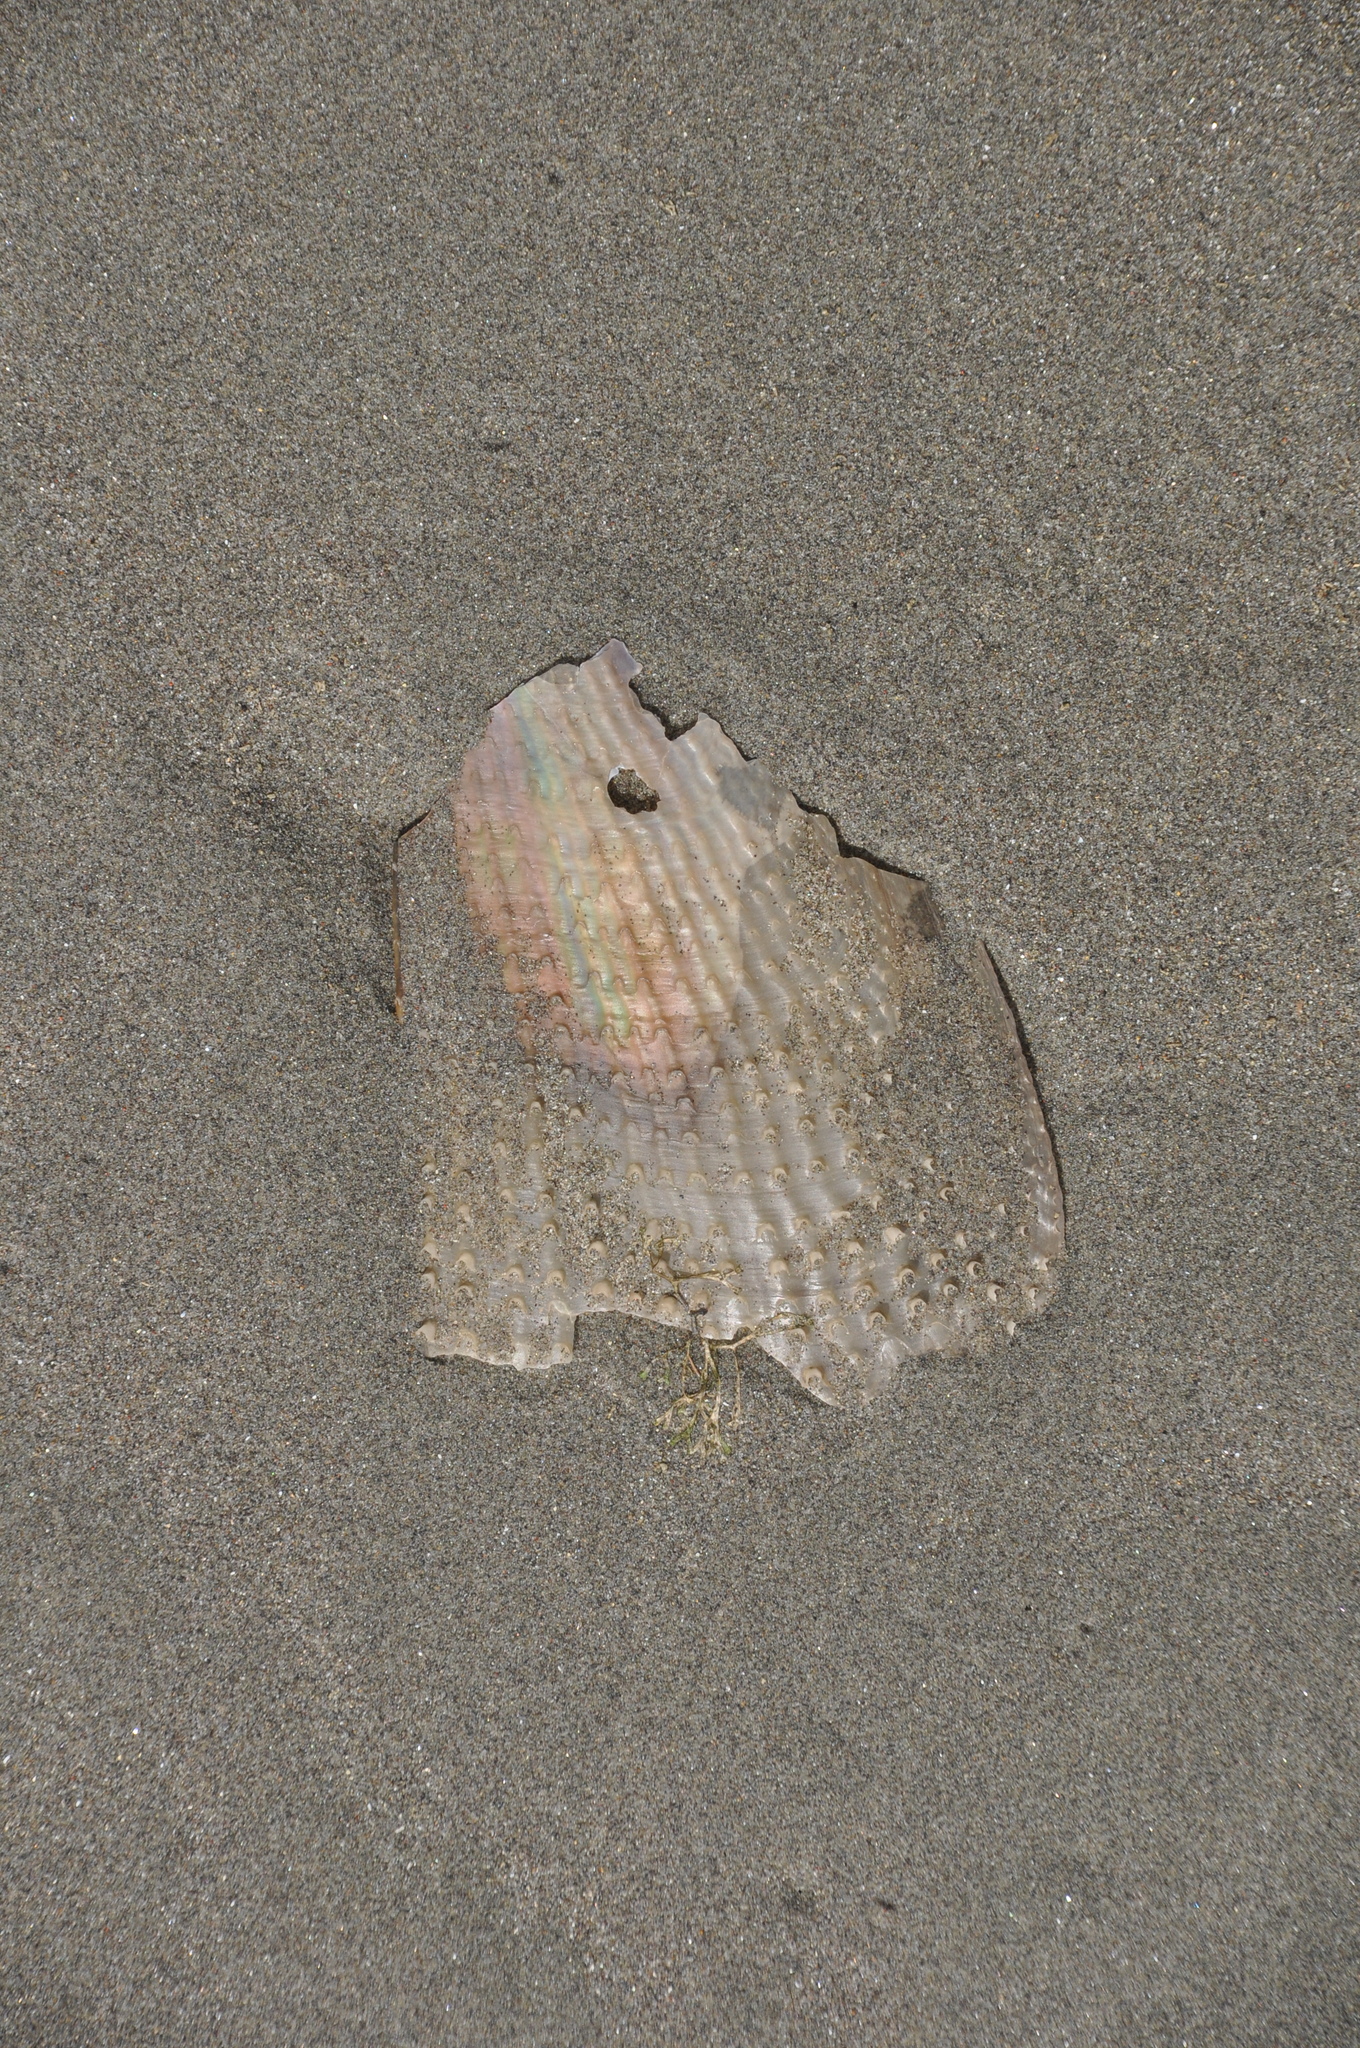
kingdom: Animalia
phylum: Mollusca
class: Bivalvia
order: Ostreida
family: Pinnidae
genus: Atrina
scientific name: Atrina zelandica
